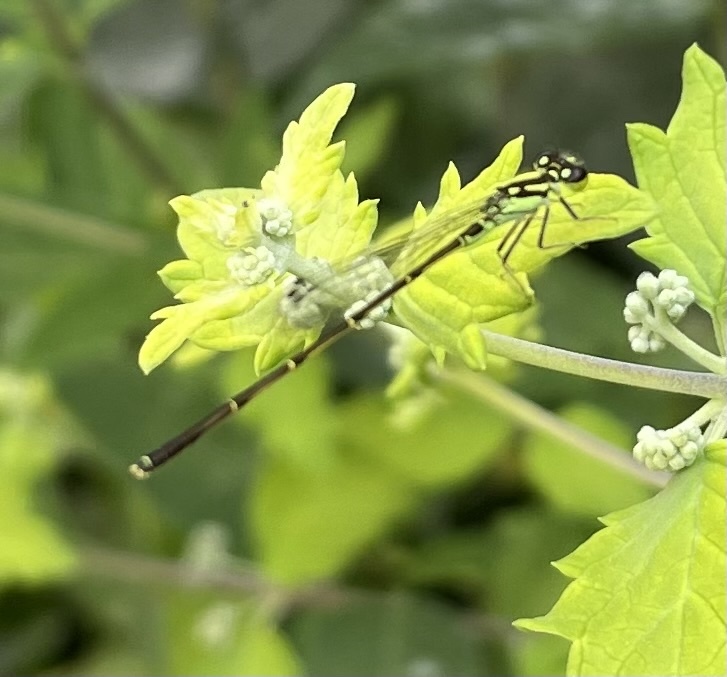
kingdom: Animalia
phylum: Arthropoda
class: Insecta
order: Odonata
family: Coenagrionidae
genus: Ischnura
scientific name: Ischnura posita
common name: Fragile forktail
